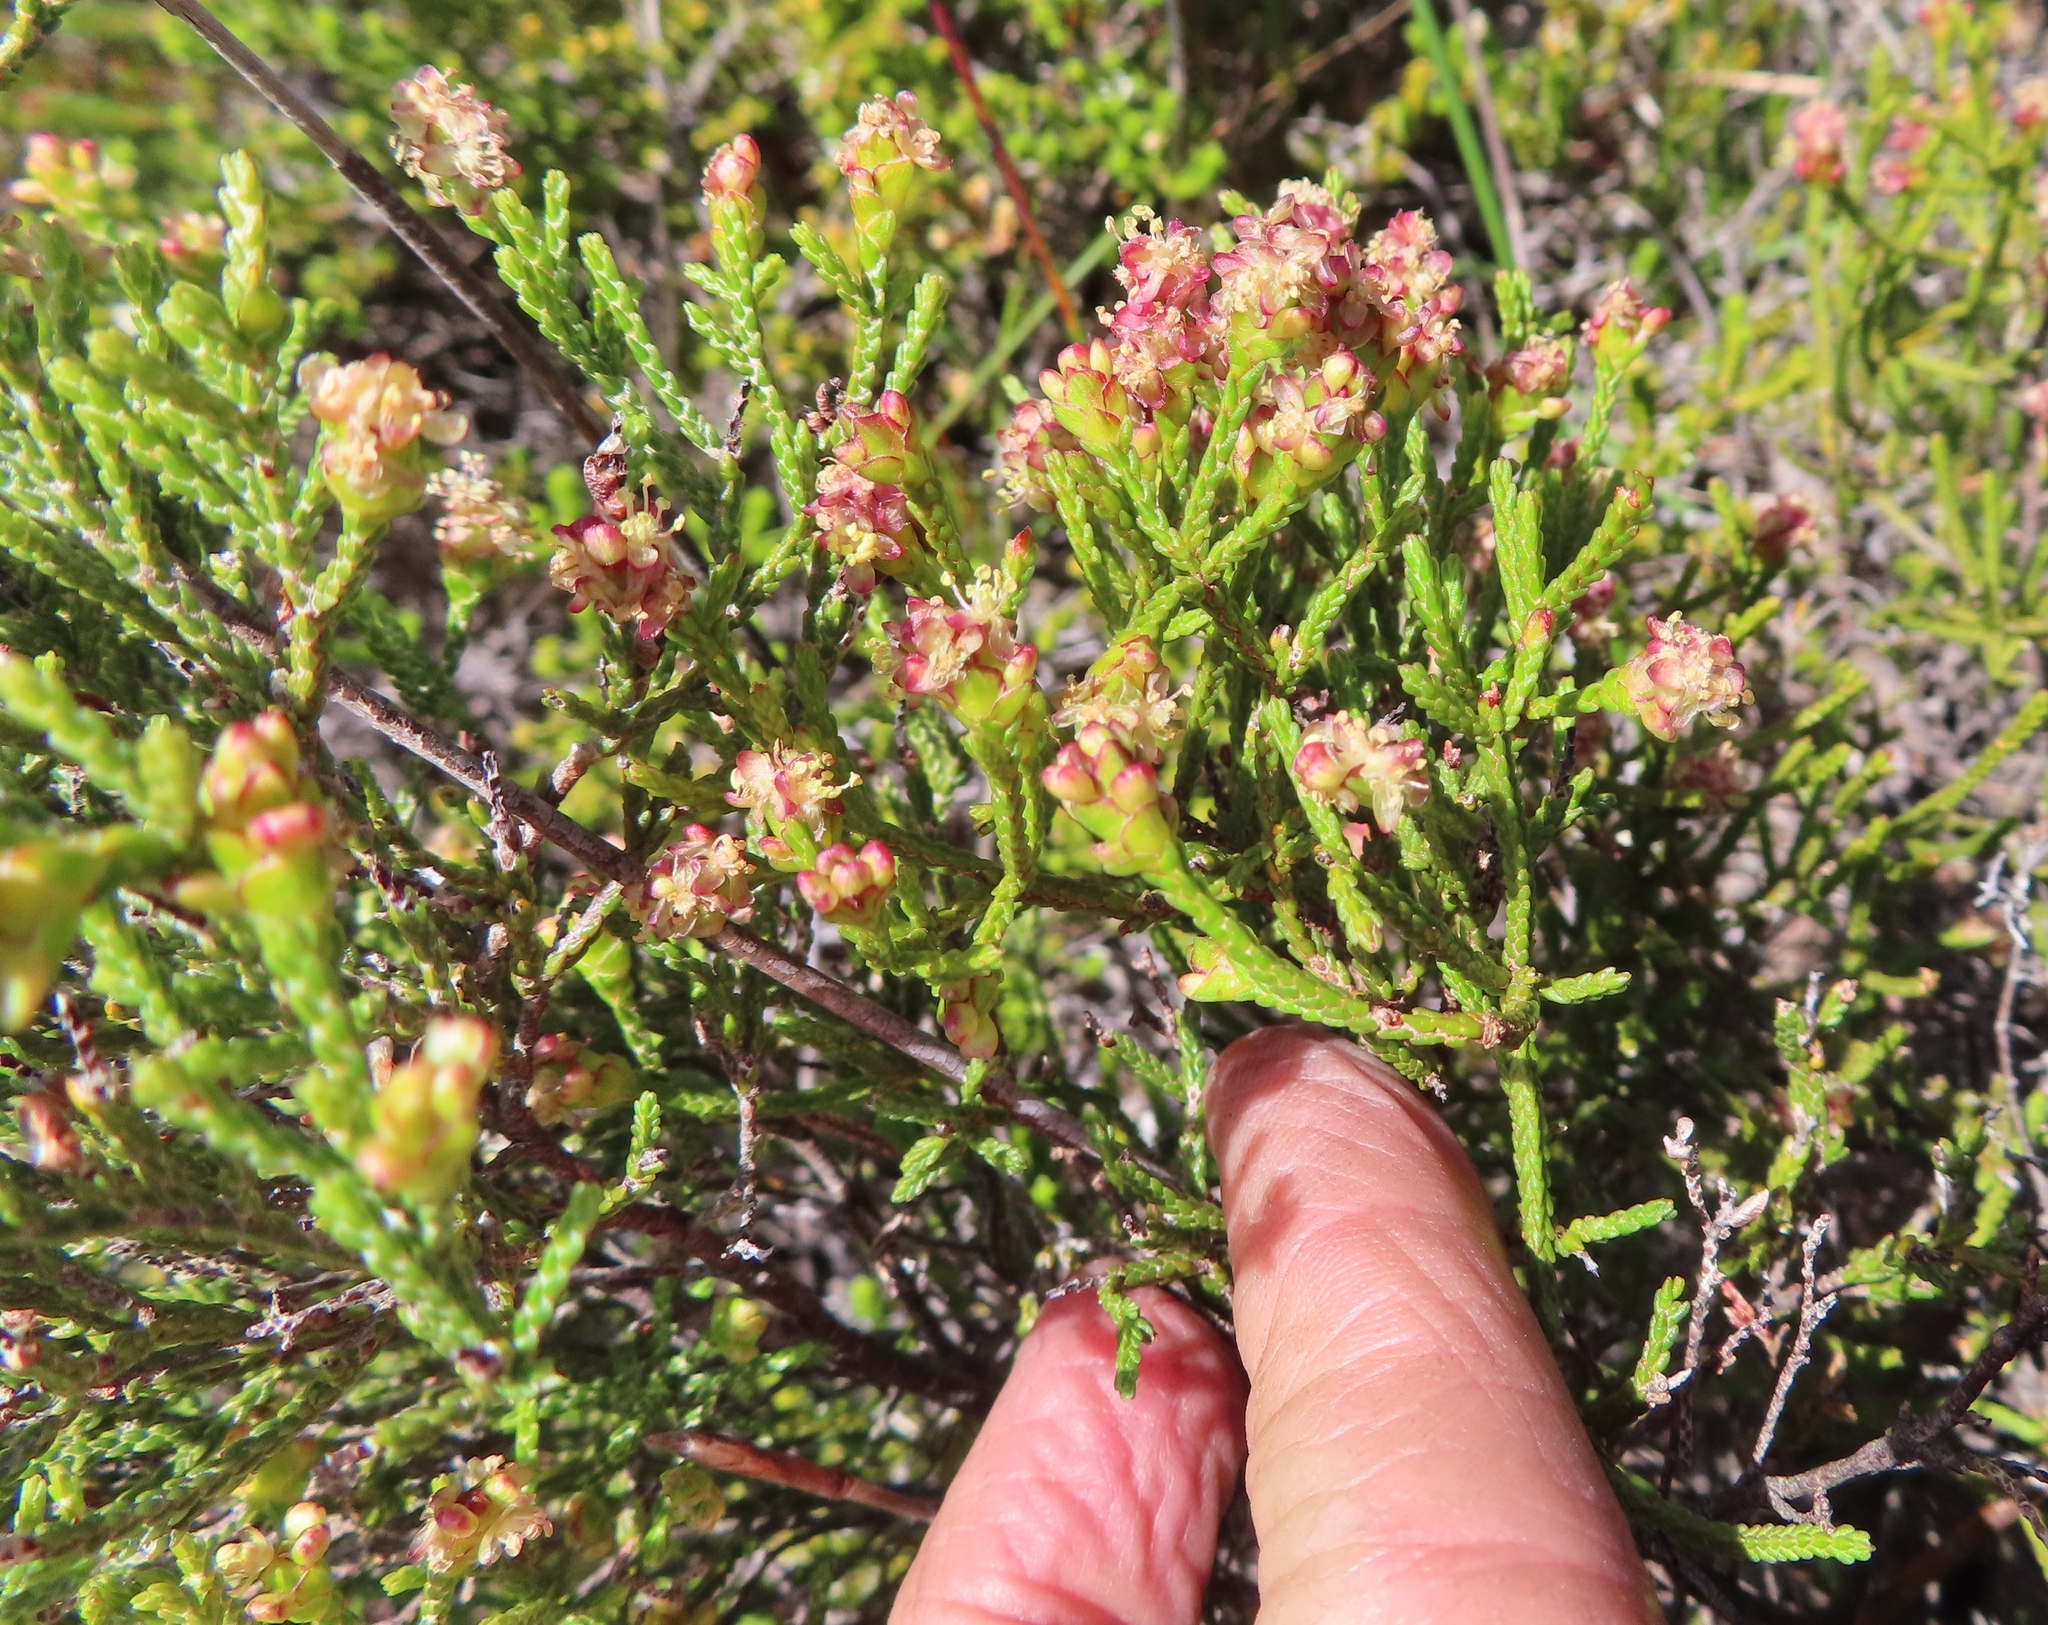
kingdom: Plantae
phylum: Tracheophyta
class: Magnoliopsida
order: Malvales
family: Thymelaeaceae
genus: Passerina
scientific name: Passerina paleacea
